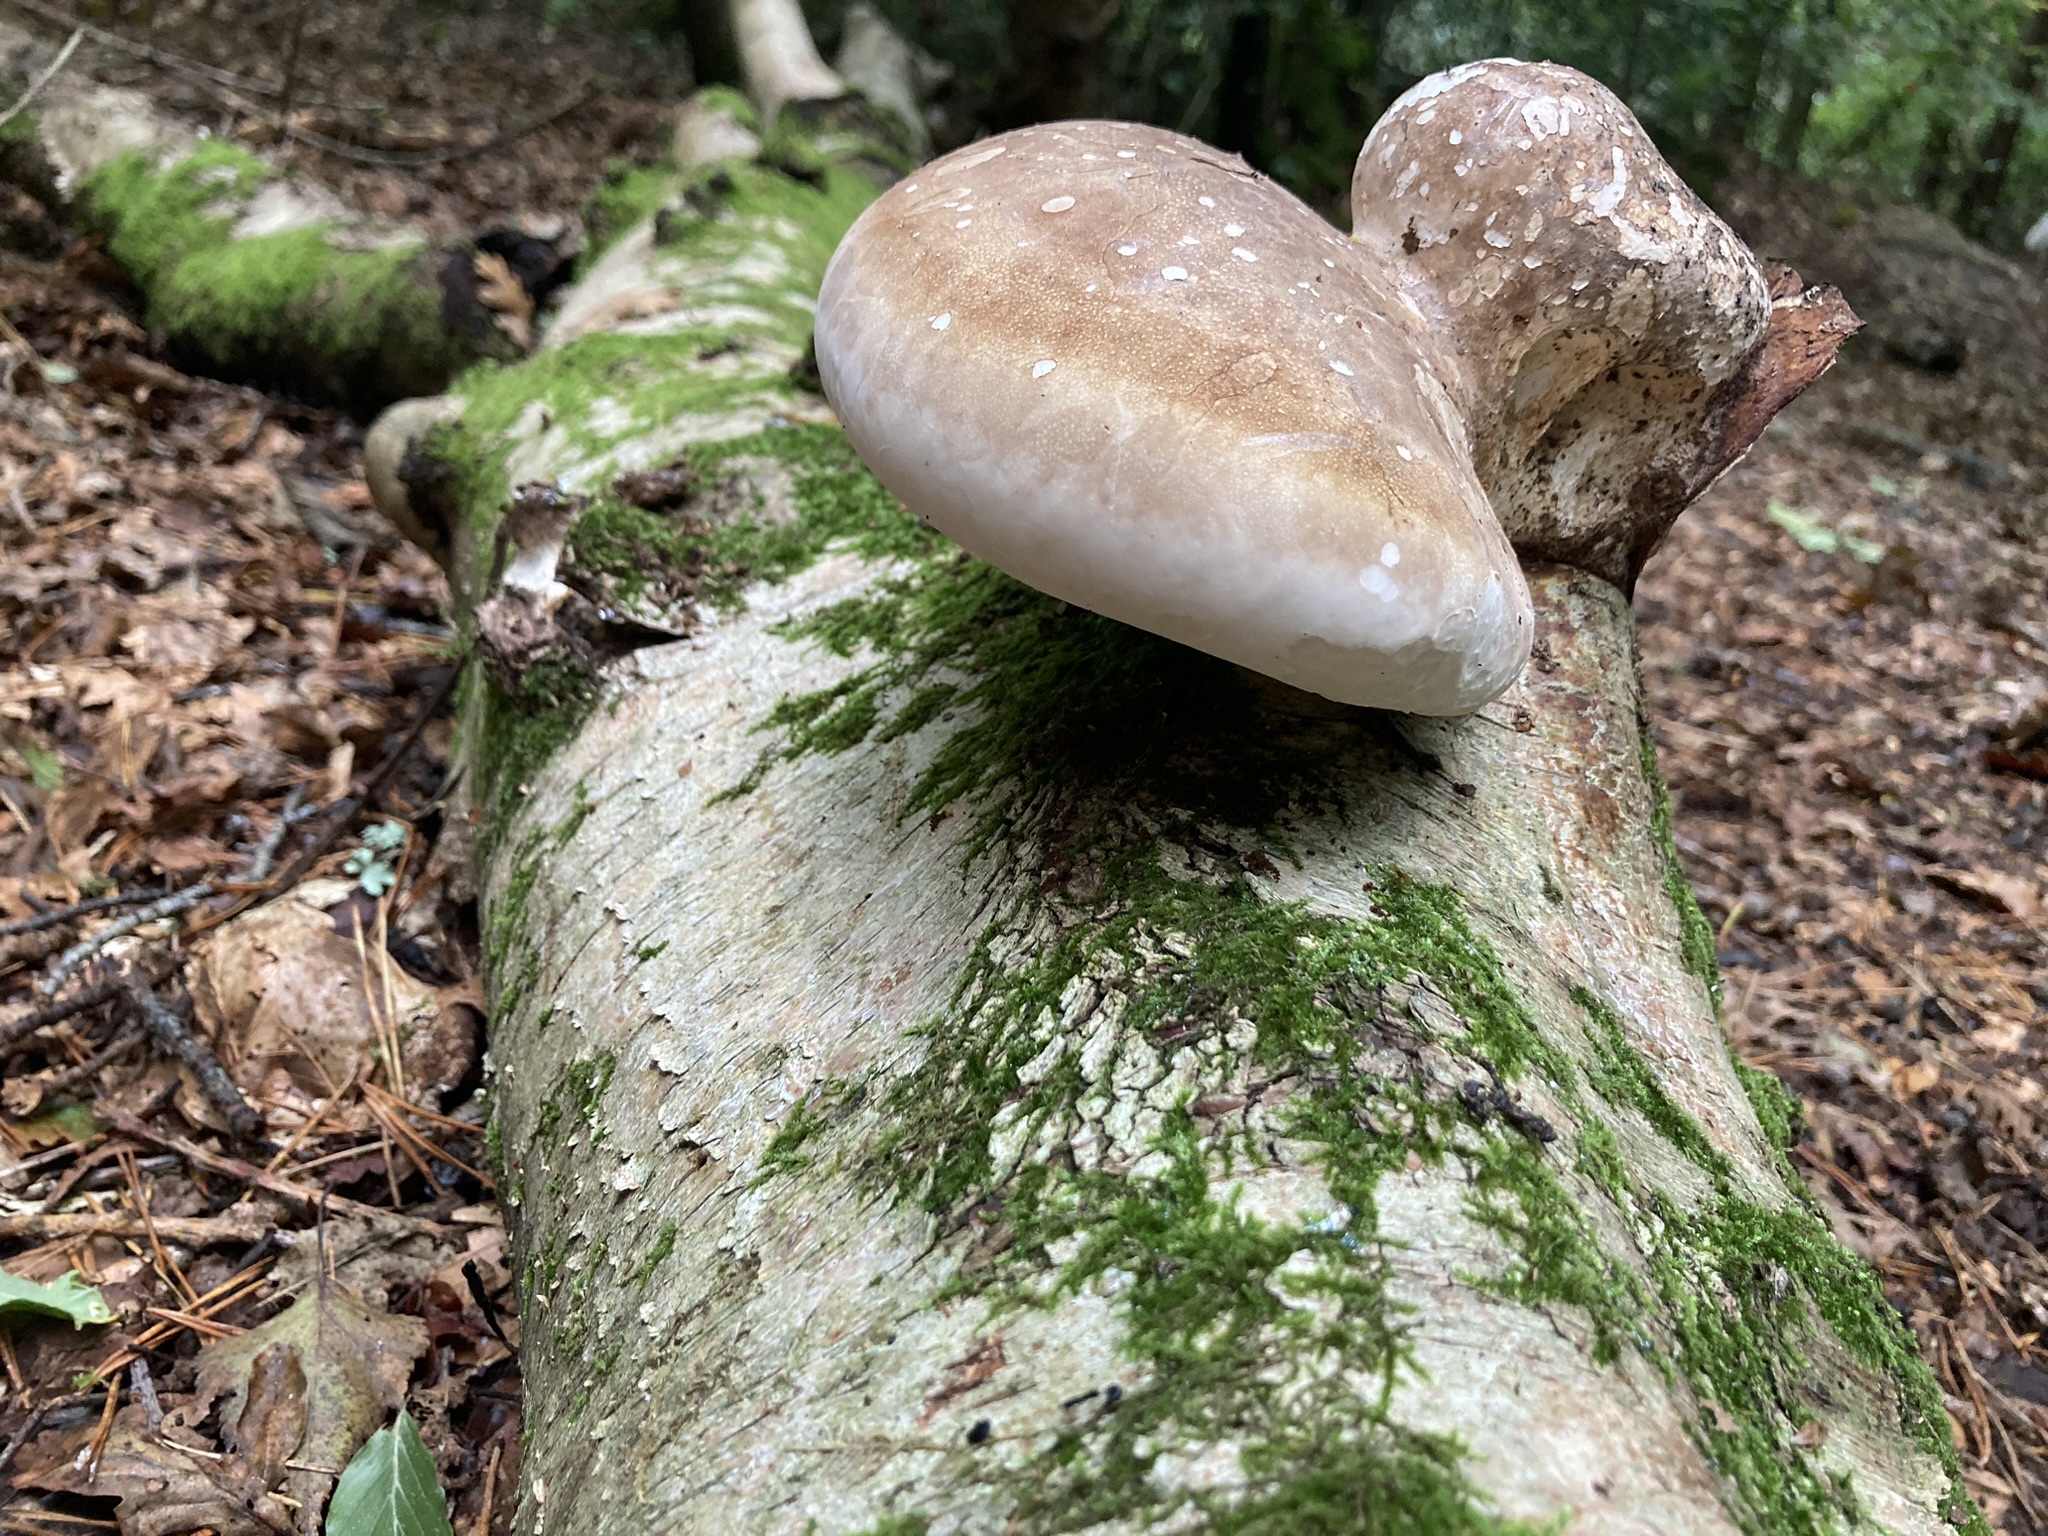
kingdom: Fungi
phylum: Basidiomycota
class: Agaricomycetes
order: Polyporales
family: Fomitopsidaceae
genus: Fomitopsis
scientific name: Fomitopsis betulina
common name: Birch polypore
